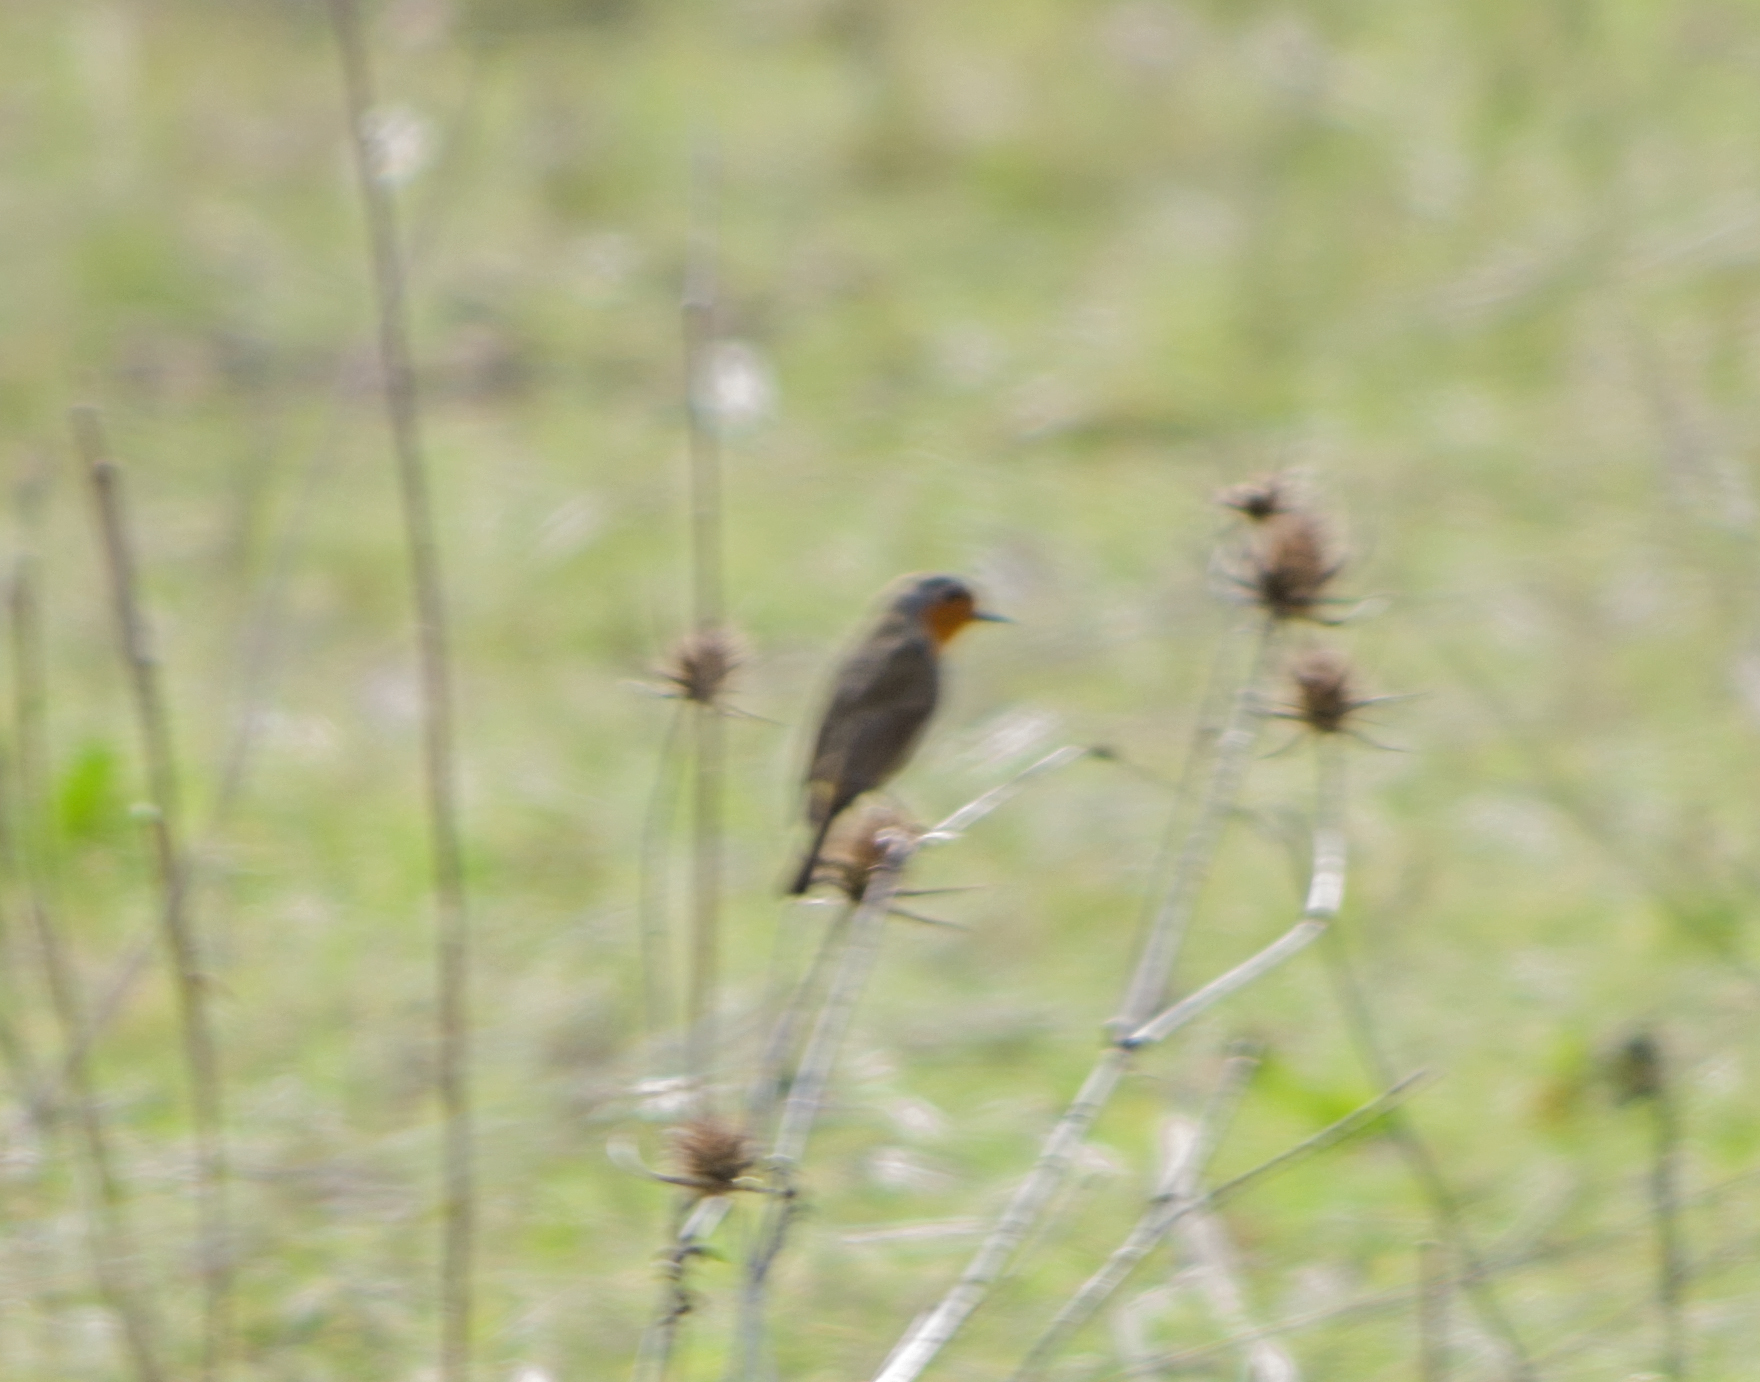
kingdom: Animalia
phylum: Chordata
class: Aves
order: Passeriformes
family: Muscicapidae
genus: Erithacus
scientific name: Erithacus rubecula
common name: European robin
